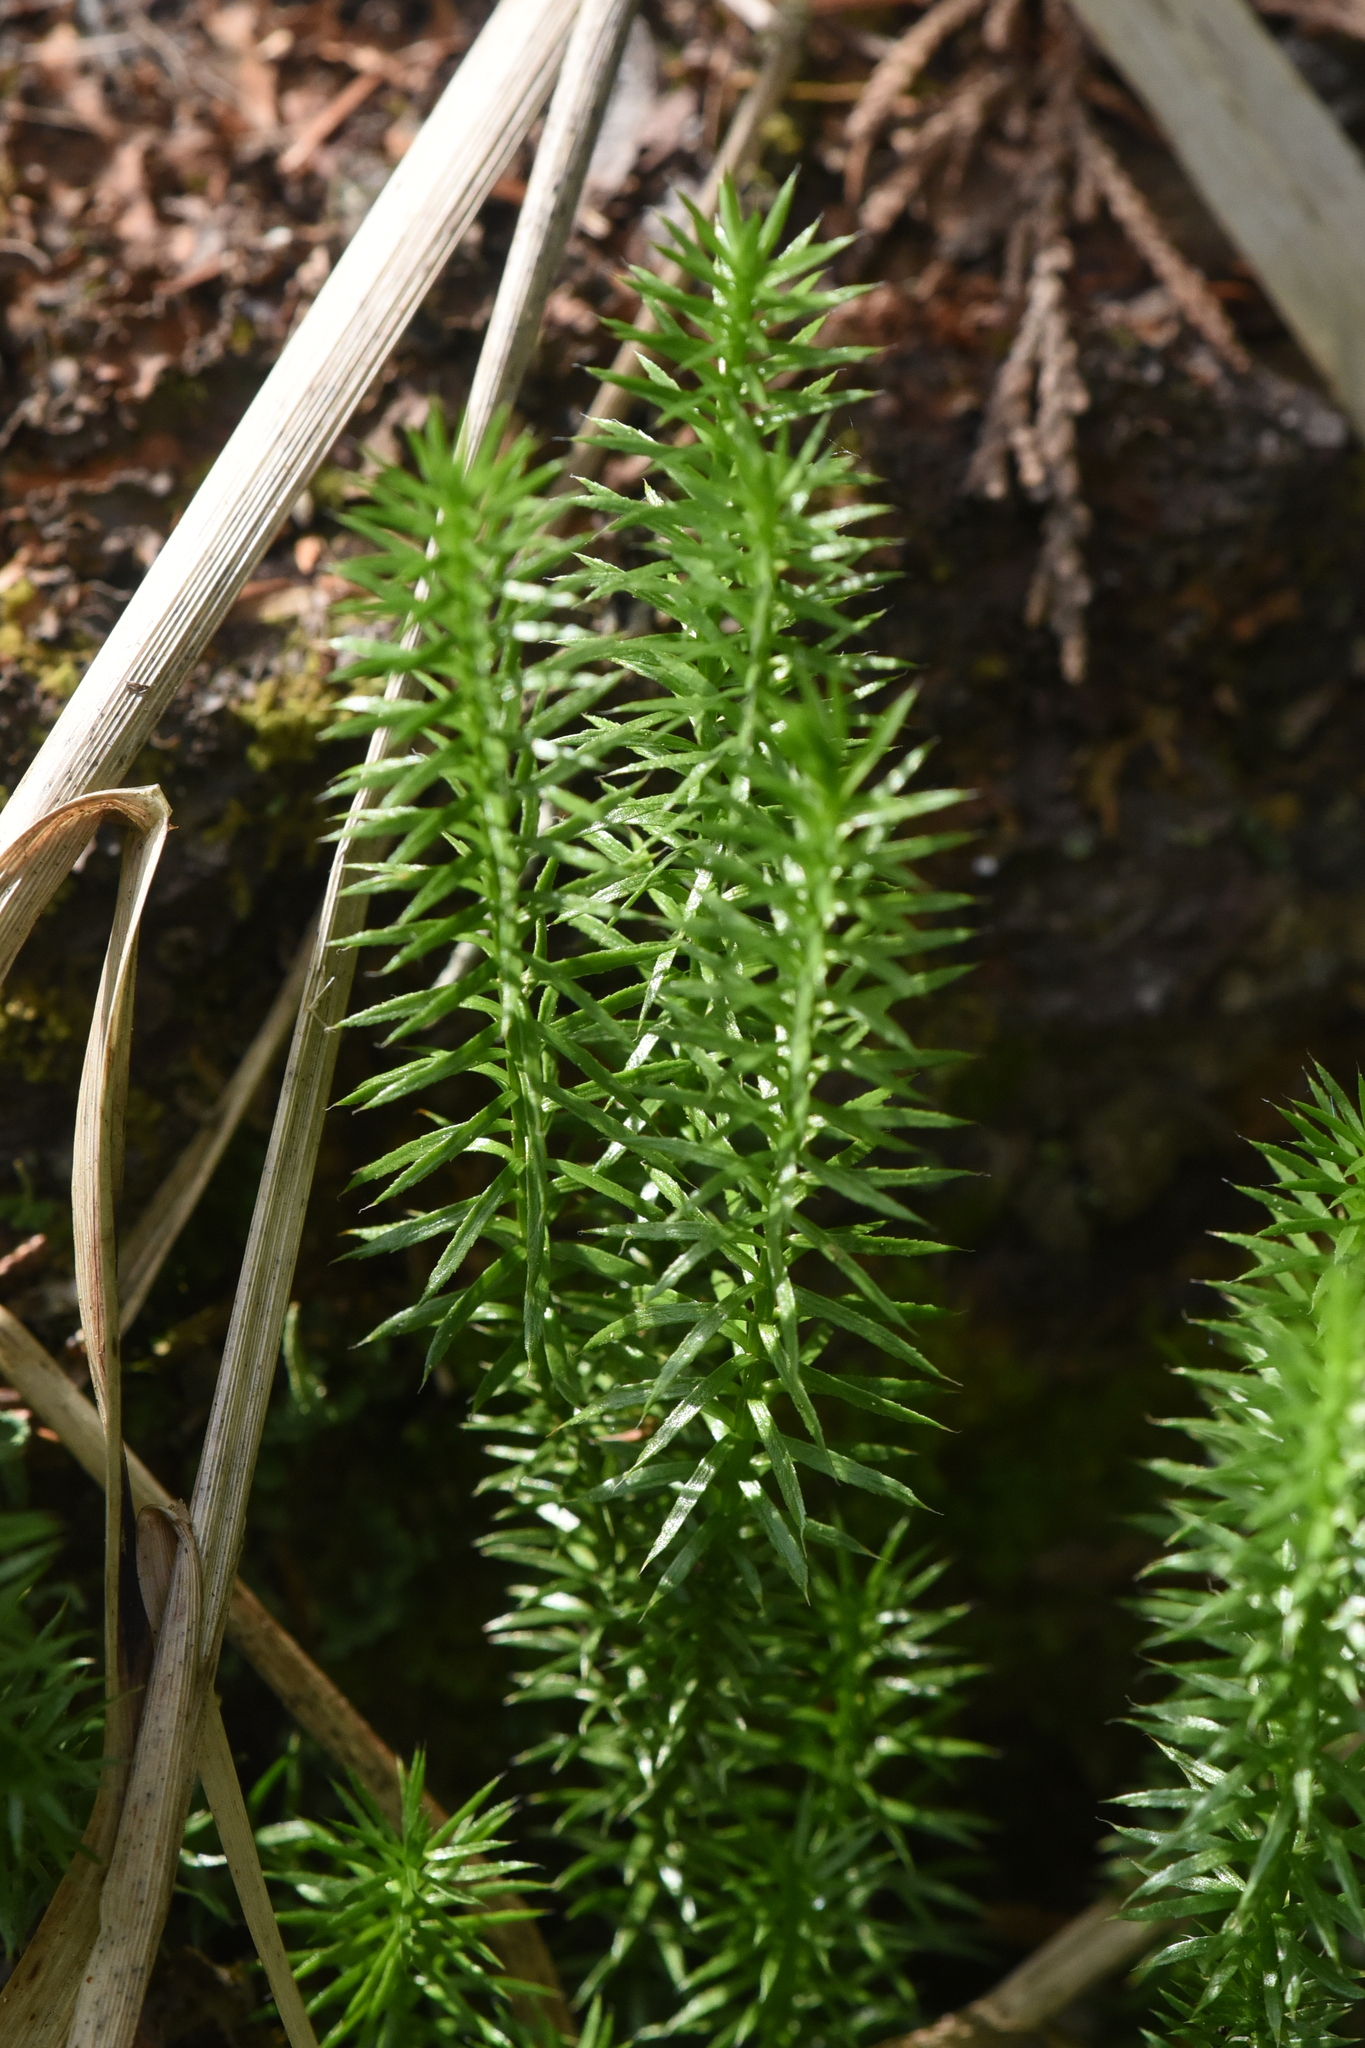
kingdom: Plantae
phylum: Tracheophyta
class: Lycopodiopsida
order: Lycopodiales
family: Lycopodiaceae
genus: Spinulum
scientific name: Spinulum annotinum
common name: Interrupted club-moss
